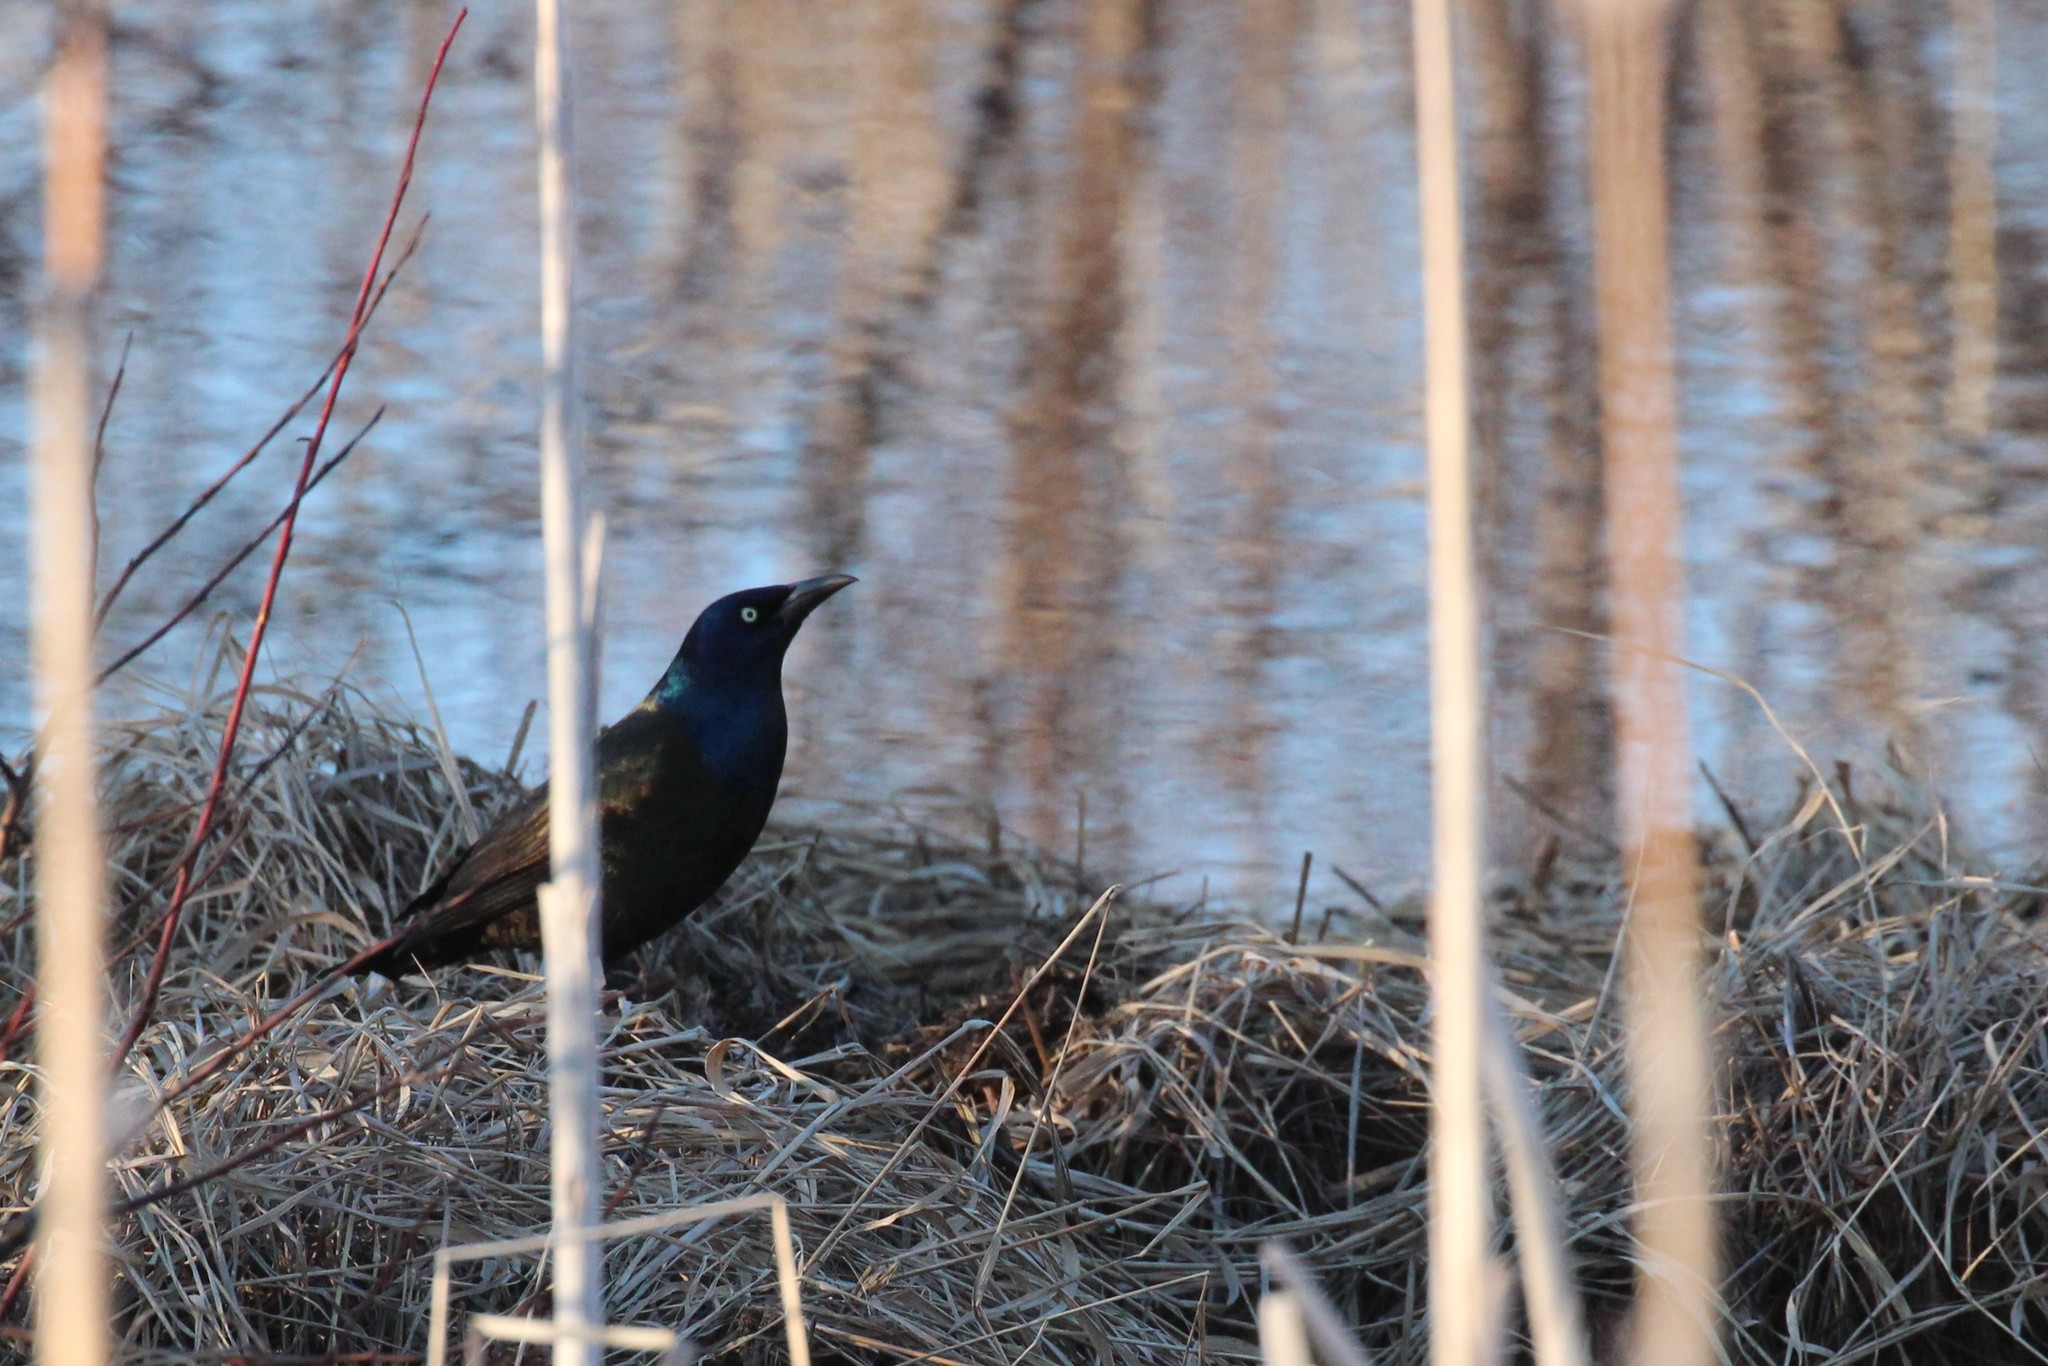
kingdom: Animalia
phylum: Chordata
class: Aves
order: Passeriformes
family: Icteridae
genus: Quiscalus
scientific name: Quiscalus quiscula
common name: Common grackle
